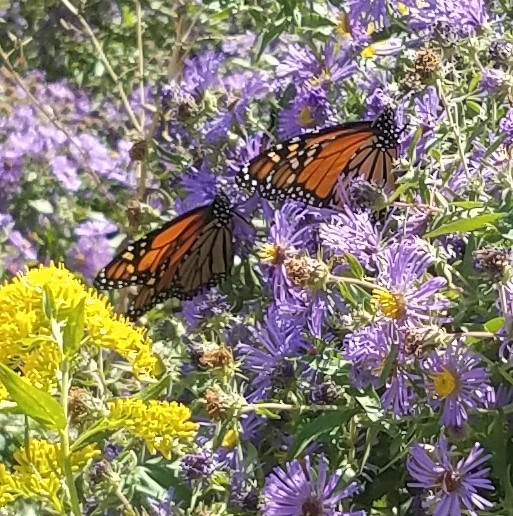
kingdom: Animalia
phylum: Arthropoda
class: Insecta
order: Lepidoptera
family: Nymphalidae
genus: Danaus
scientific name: Danaus plexippus
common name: Monarch
